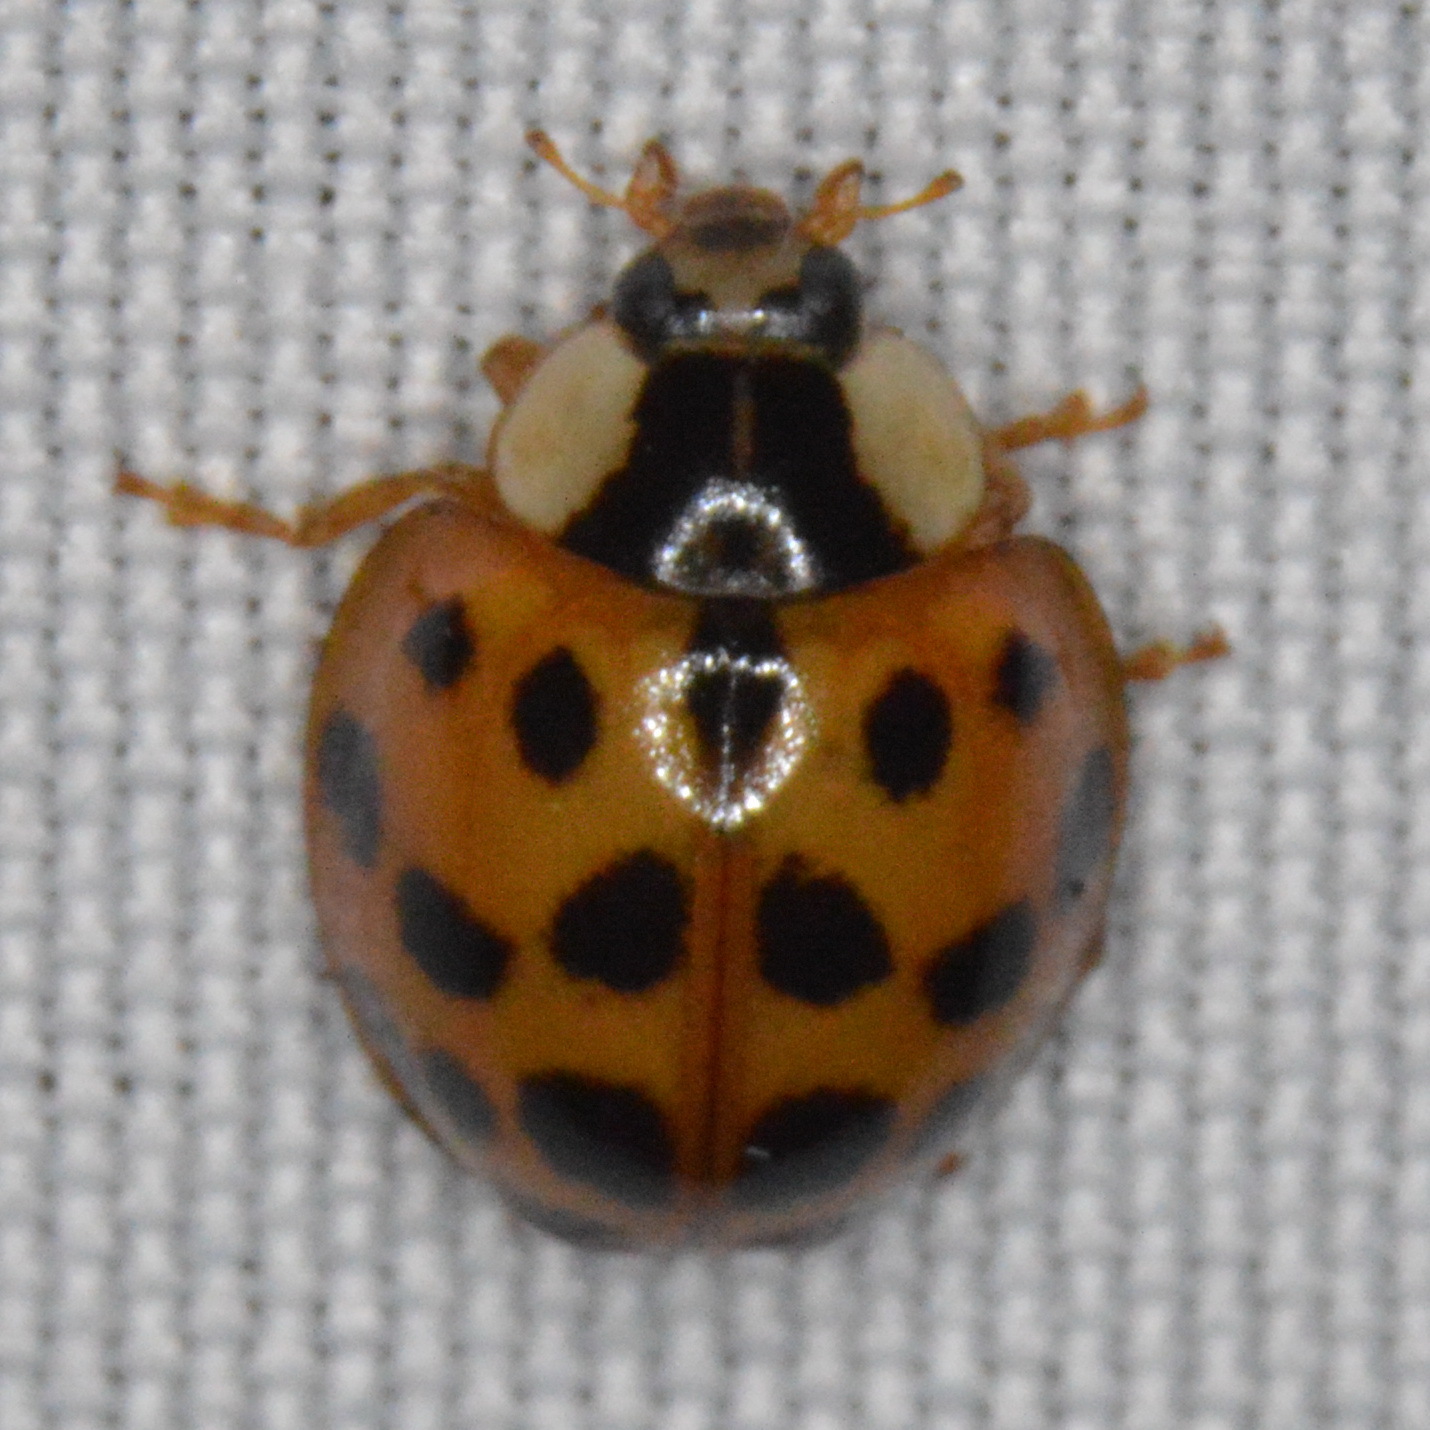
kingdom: Animalia
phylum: Arthropoda
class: Insecta
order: Coleoptera
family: Coccinellidae
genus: Harmonia
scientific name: Harmonia axyridis
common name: Harlequin ladybird
